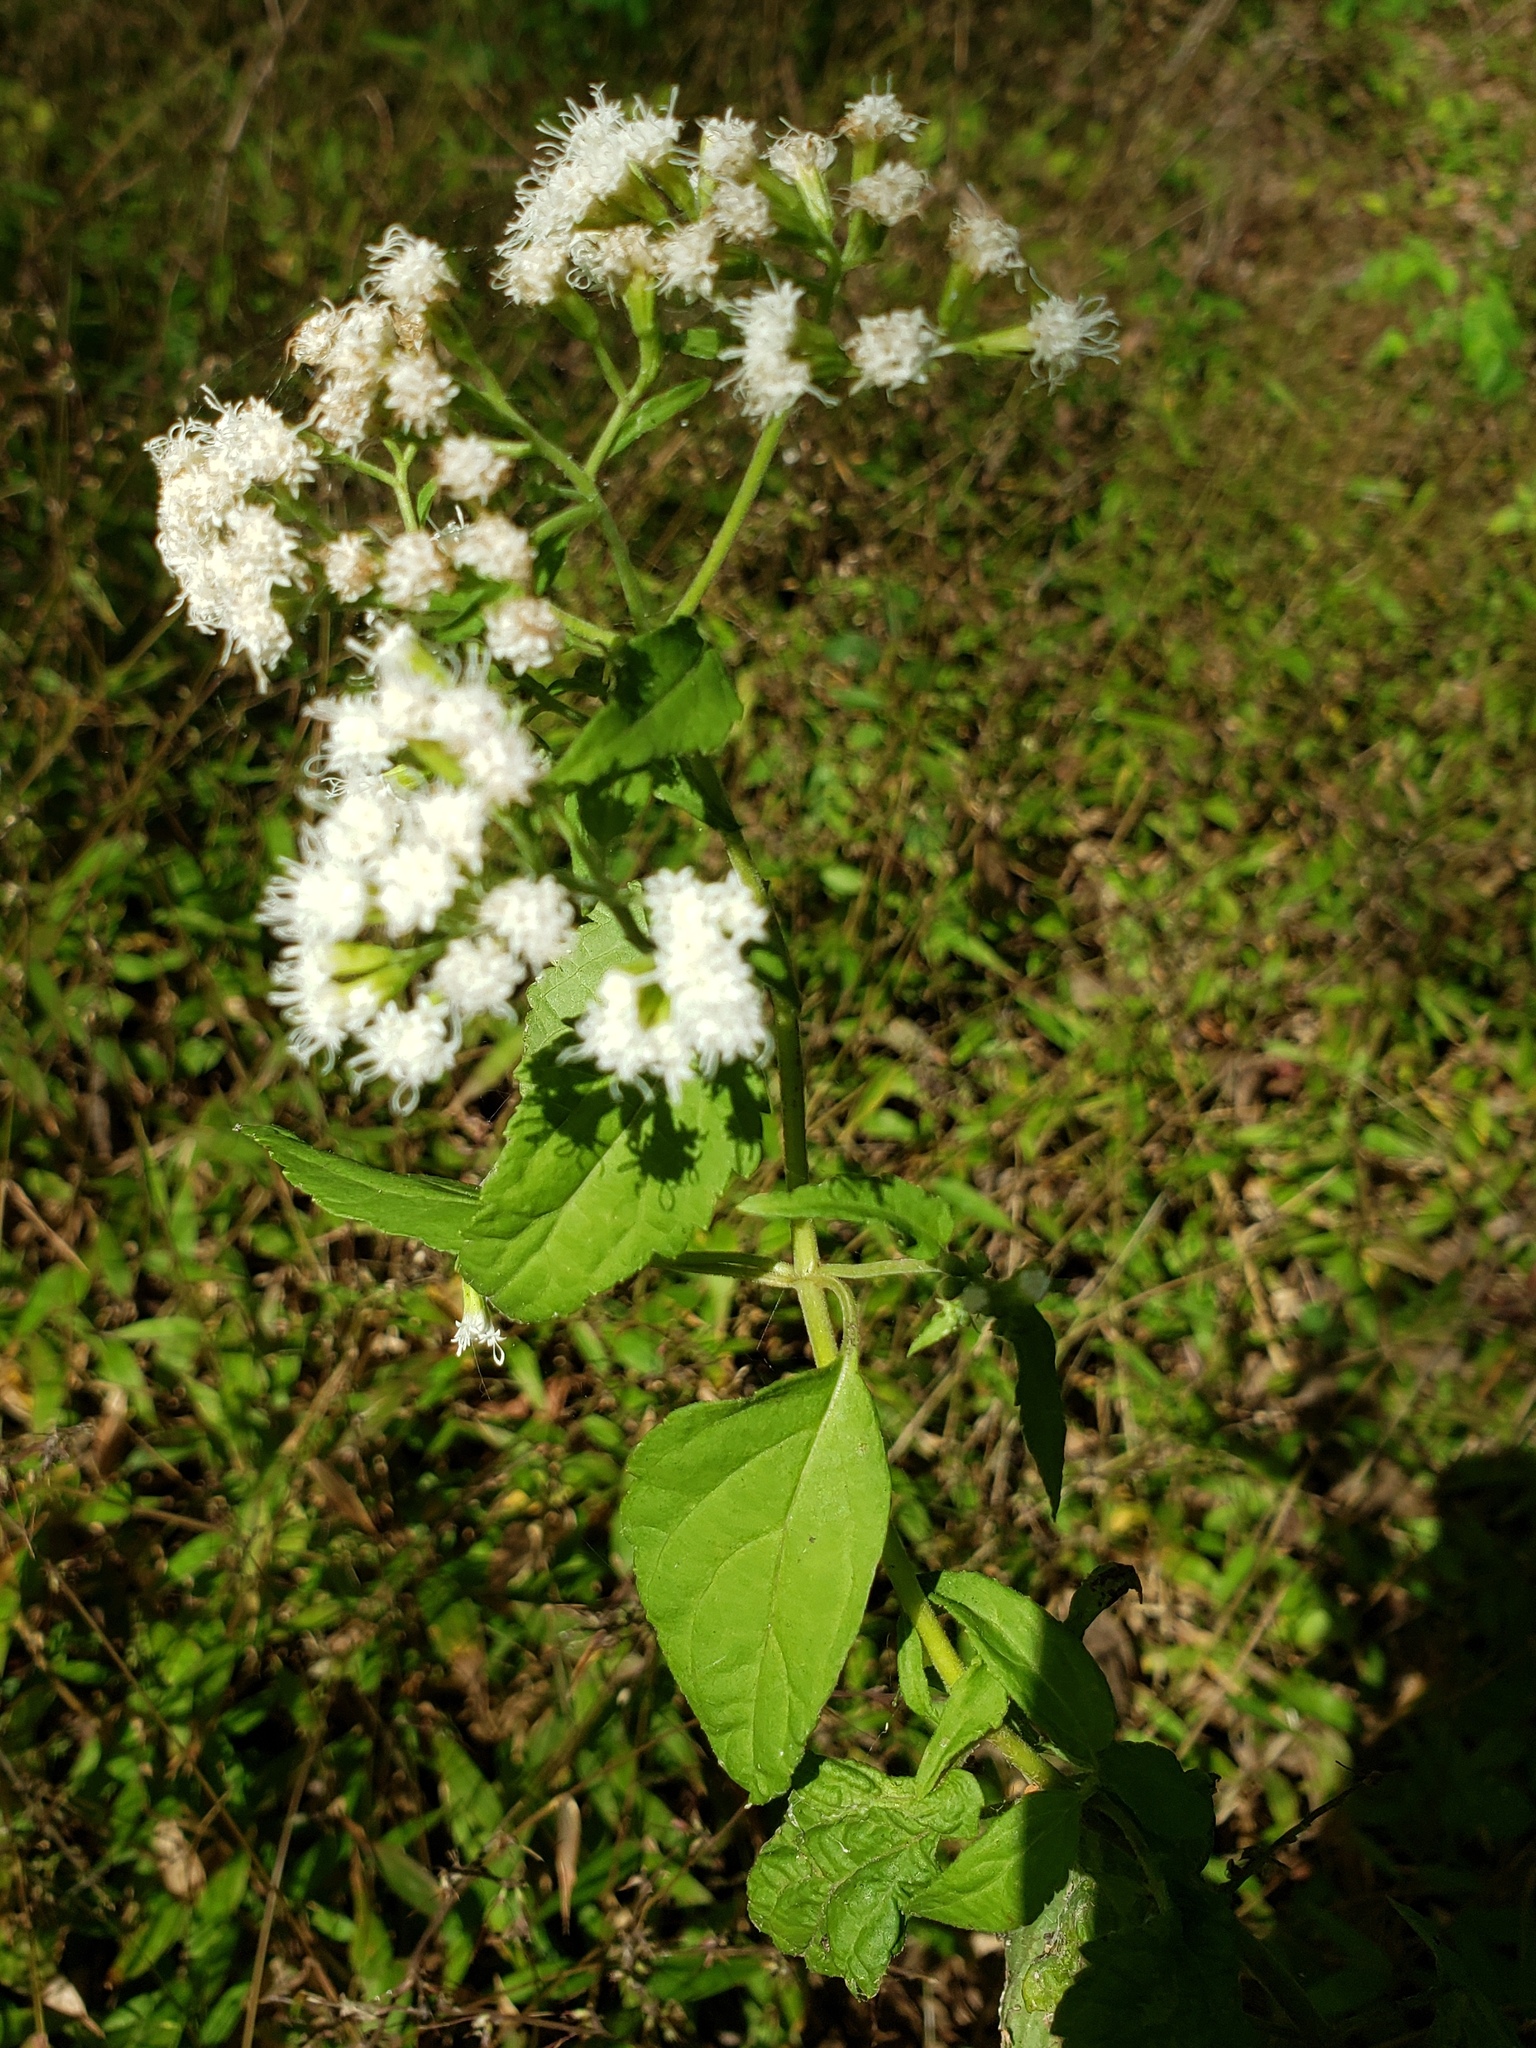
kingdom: Plantae
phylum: Tracheophyta
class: Magnoliopsida
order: Asterales
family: Asteraceae
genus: Ageratina
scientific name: Ageratina altissima
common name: White snakeroot
